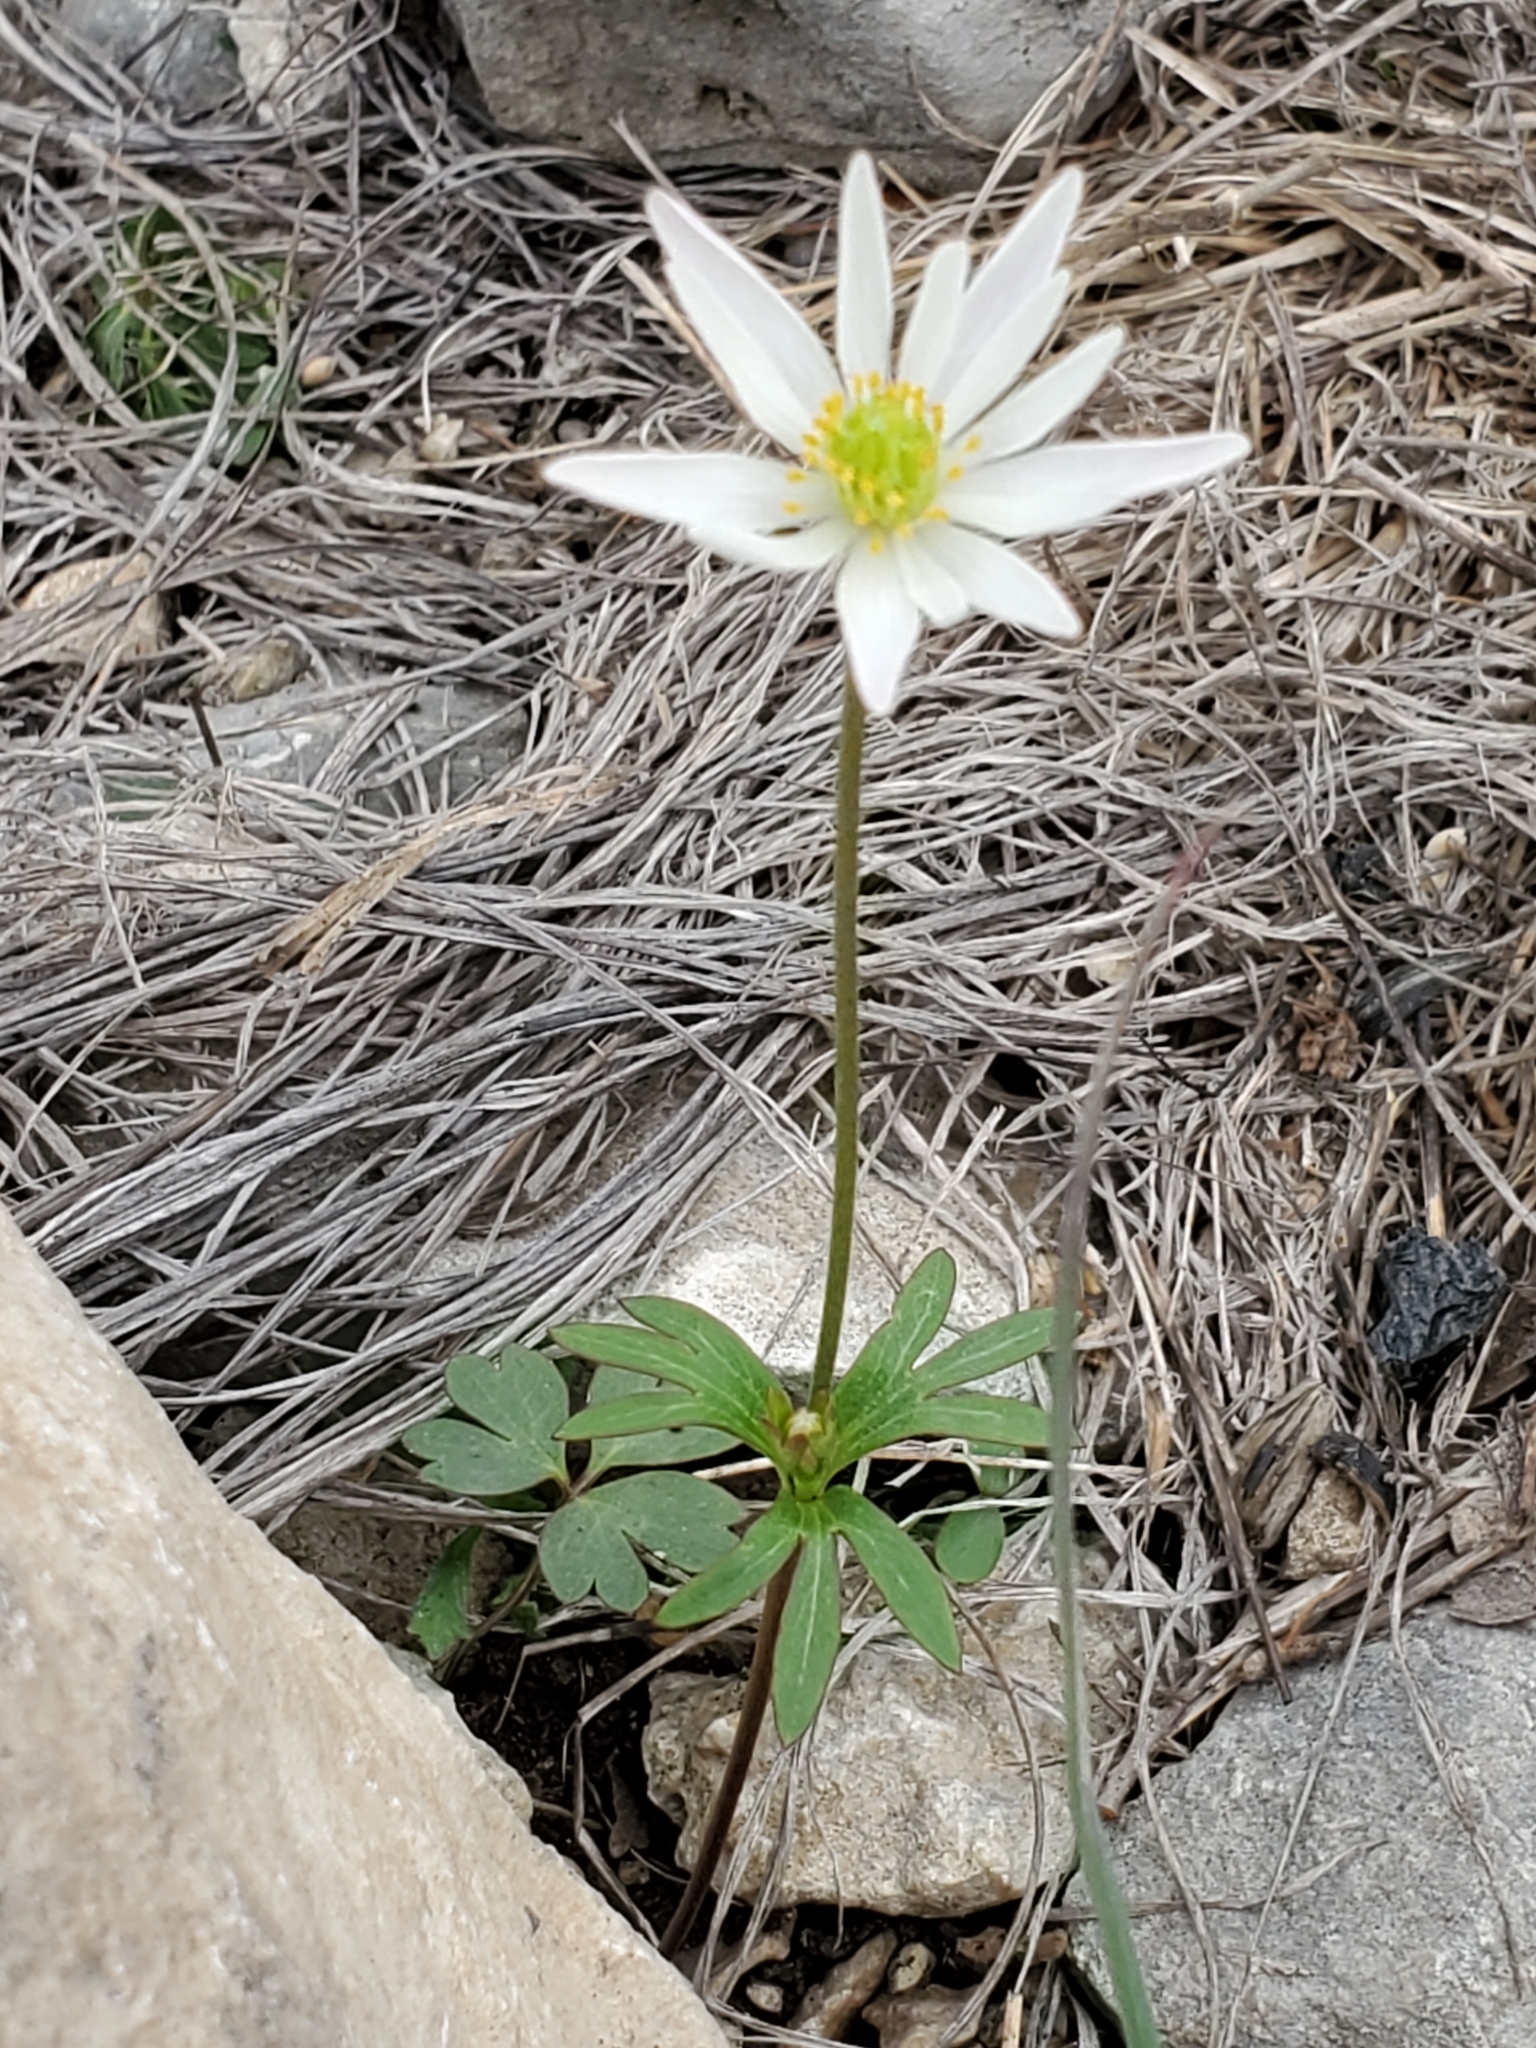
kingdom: Plantae
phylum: Tracheophyta
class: Magnoliopsida
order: Ranunculales
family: Ranunculaceae
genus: Anemone
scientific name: Anemone edwardsiana
